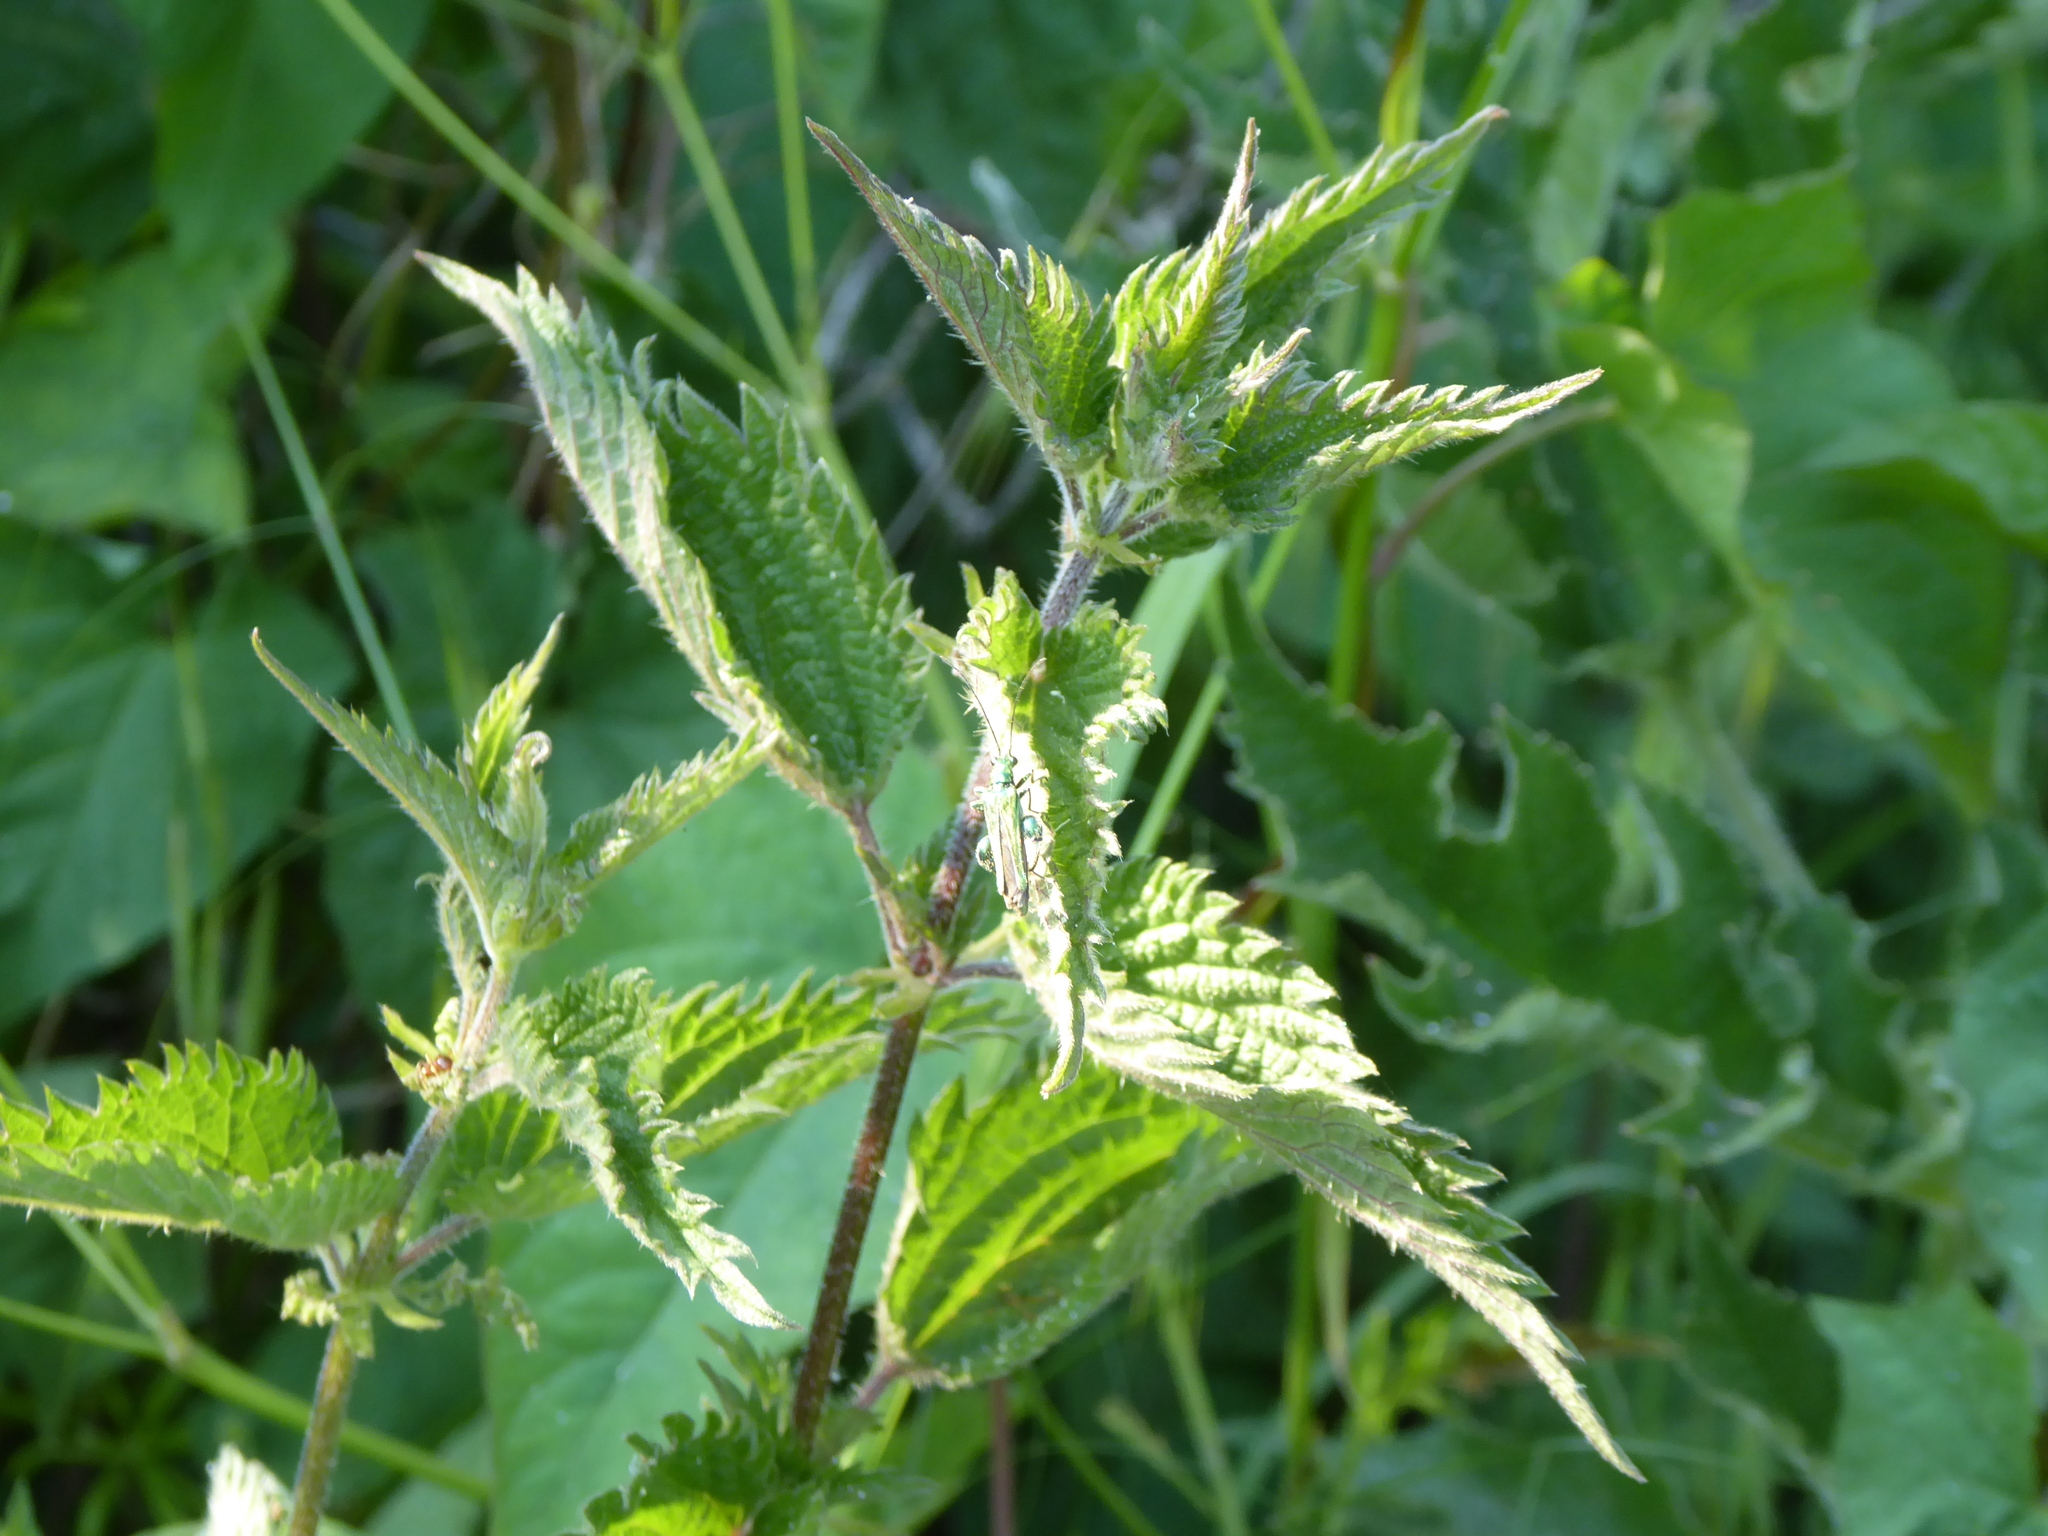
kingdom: Plantae
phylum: Tracheophyta
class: Magnoliopsida
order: Rosales
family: Urticaceae
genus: Urtica
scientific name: Urtica dioica
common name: Common nettle
